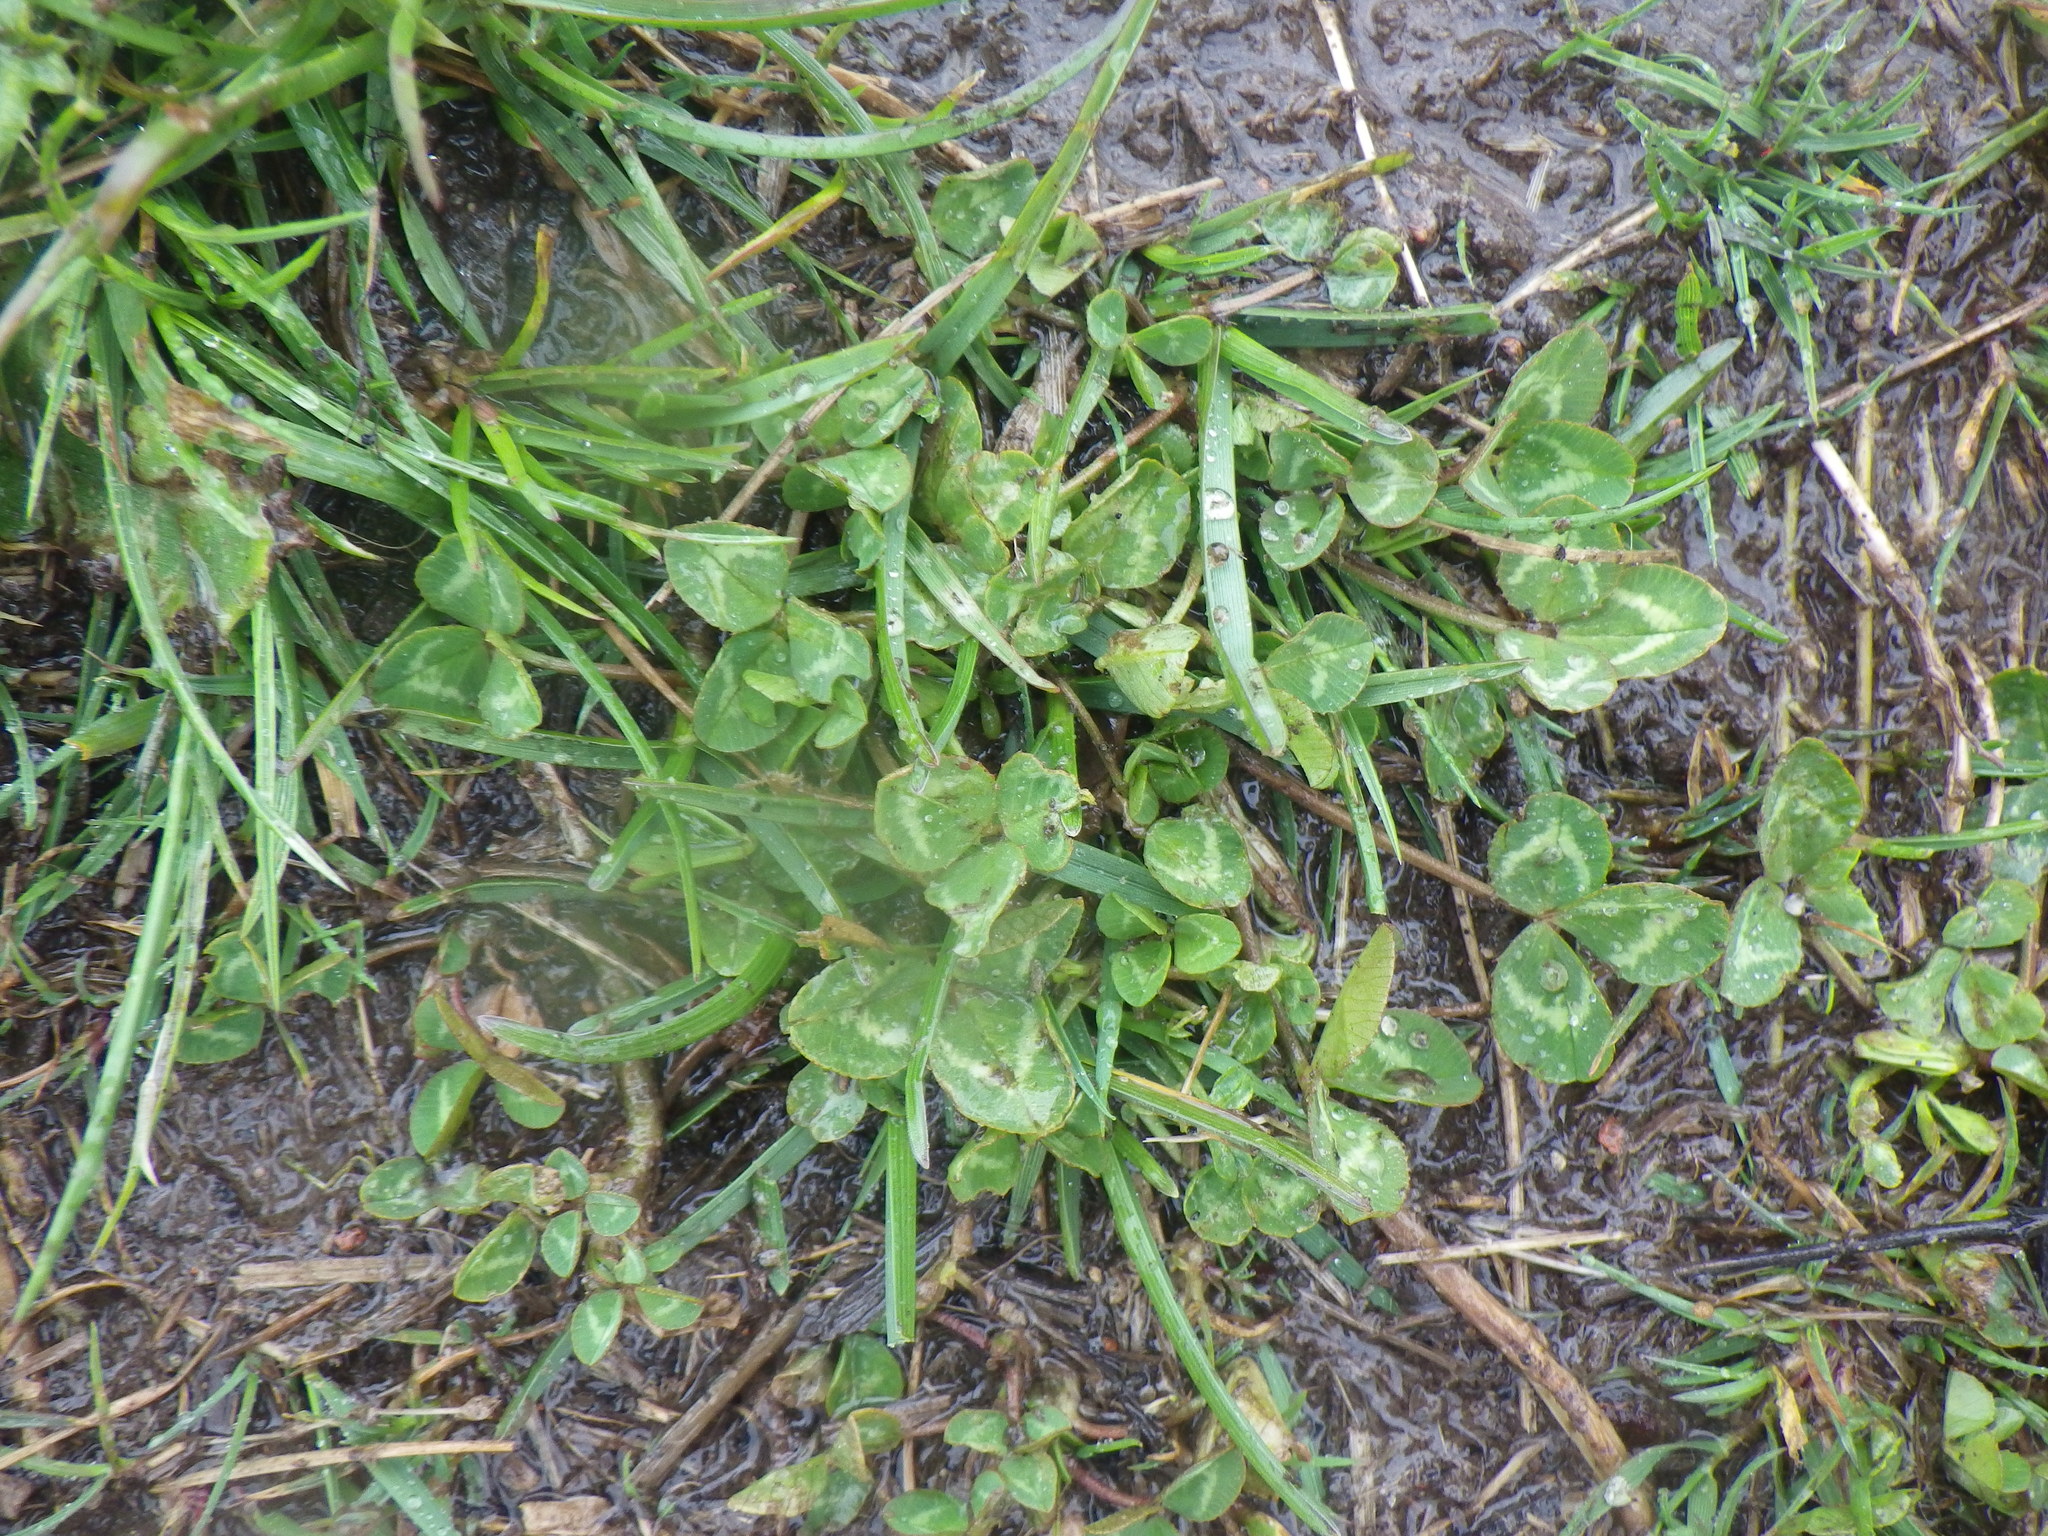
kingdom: Plantae
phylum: Tracheophyta
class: Magnoliopsida
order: Fabales
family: Fabaceae
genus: Trifolium
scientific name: Trifolium repens
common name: White clover
